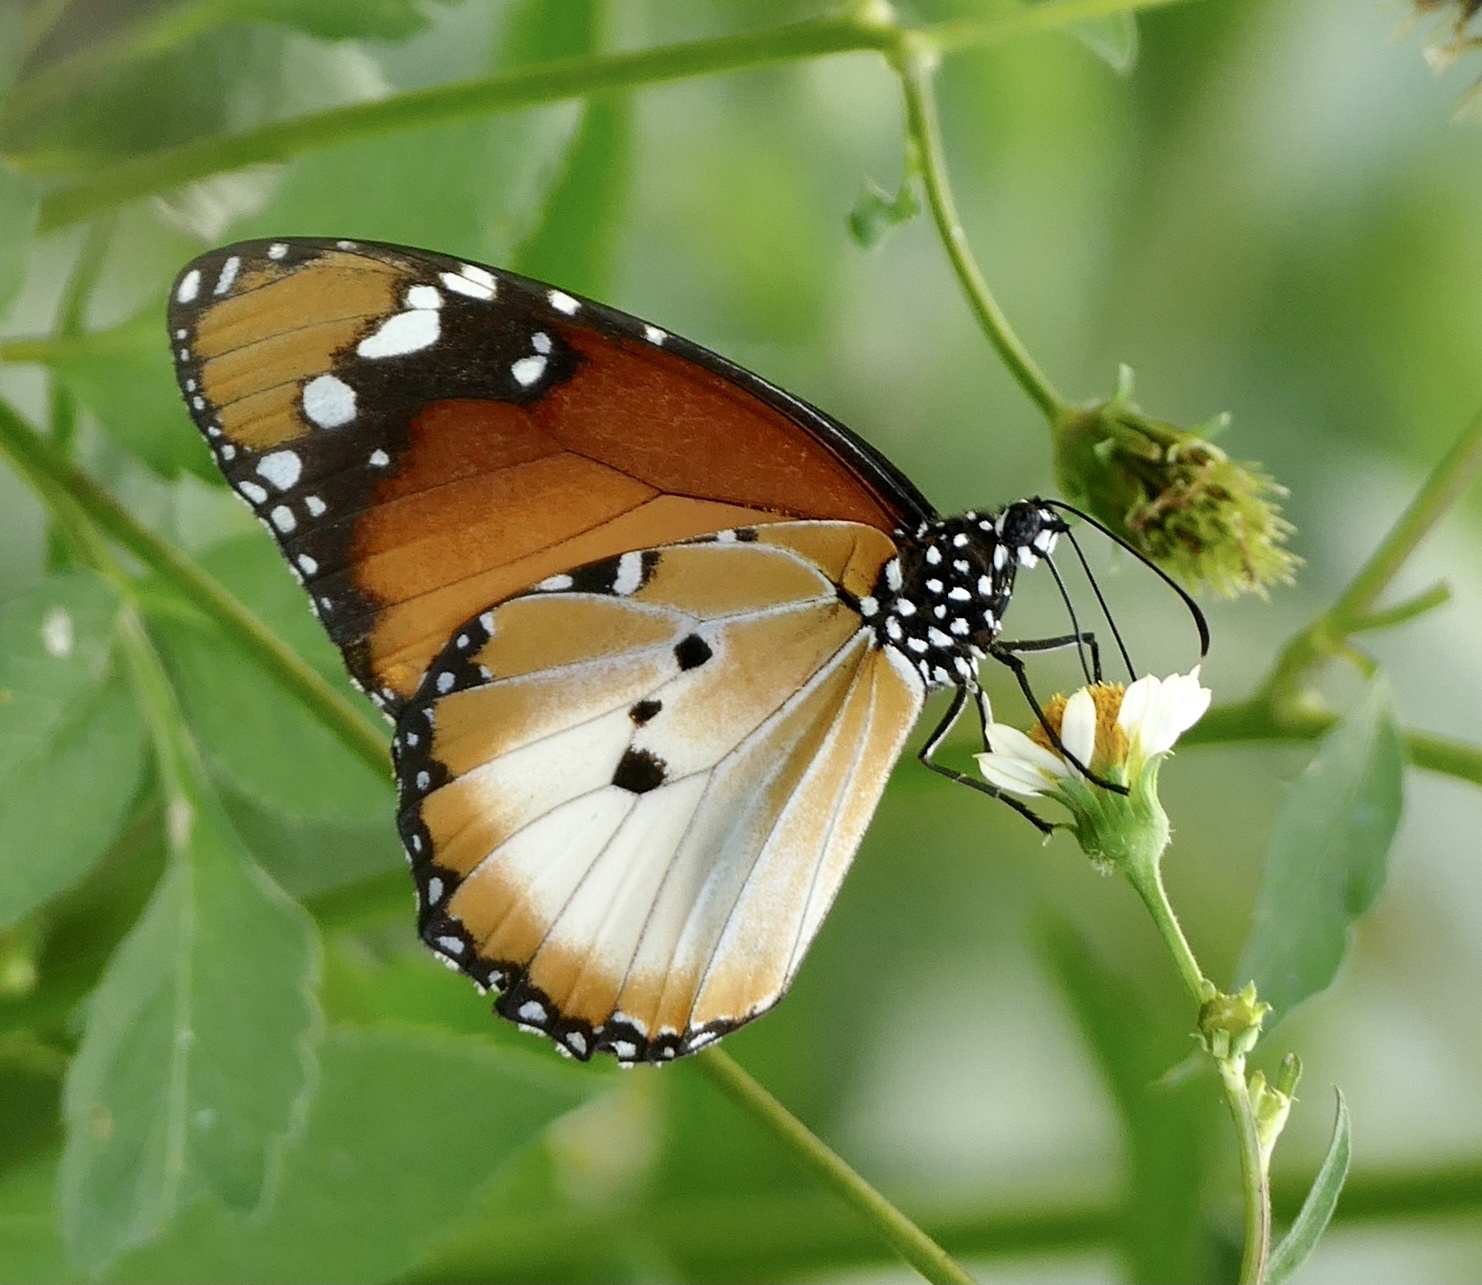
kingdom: Animalia
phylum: Arthropoda
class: Insecta
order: Lepidoptera
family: Nymphalidae
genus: Danaus
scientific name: Danaus chrysippus
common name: Plain tiger
